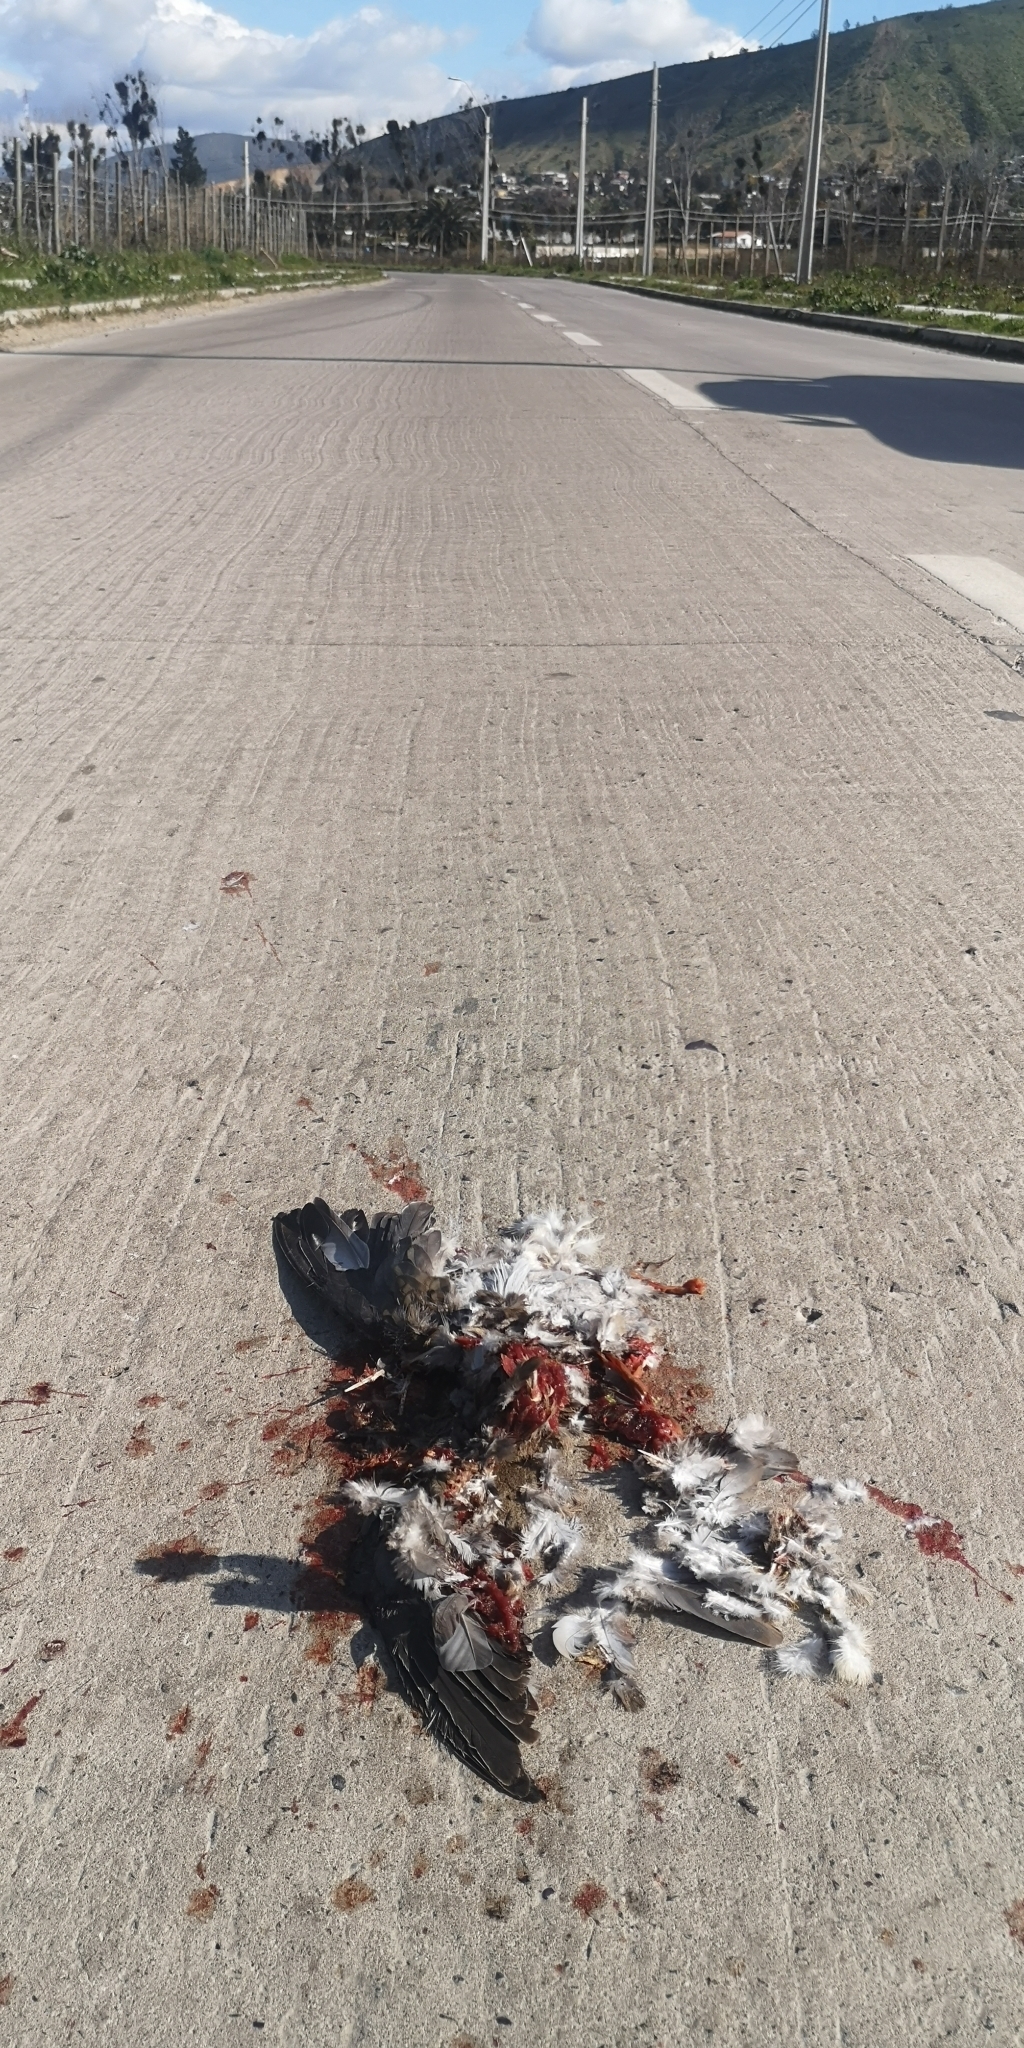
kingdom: Animalia
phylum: Chordata
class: Aves
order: Columbiformes
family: Columbidae
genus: Zenaida
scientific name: Zenaida auriculata
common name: Eared dove
